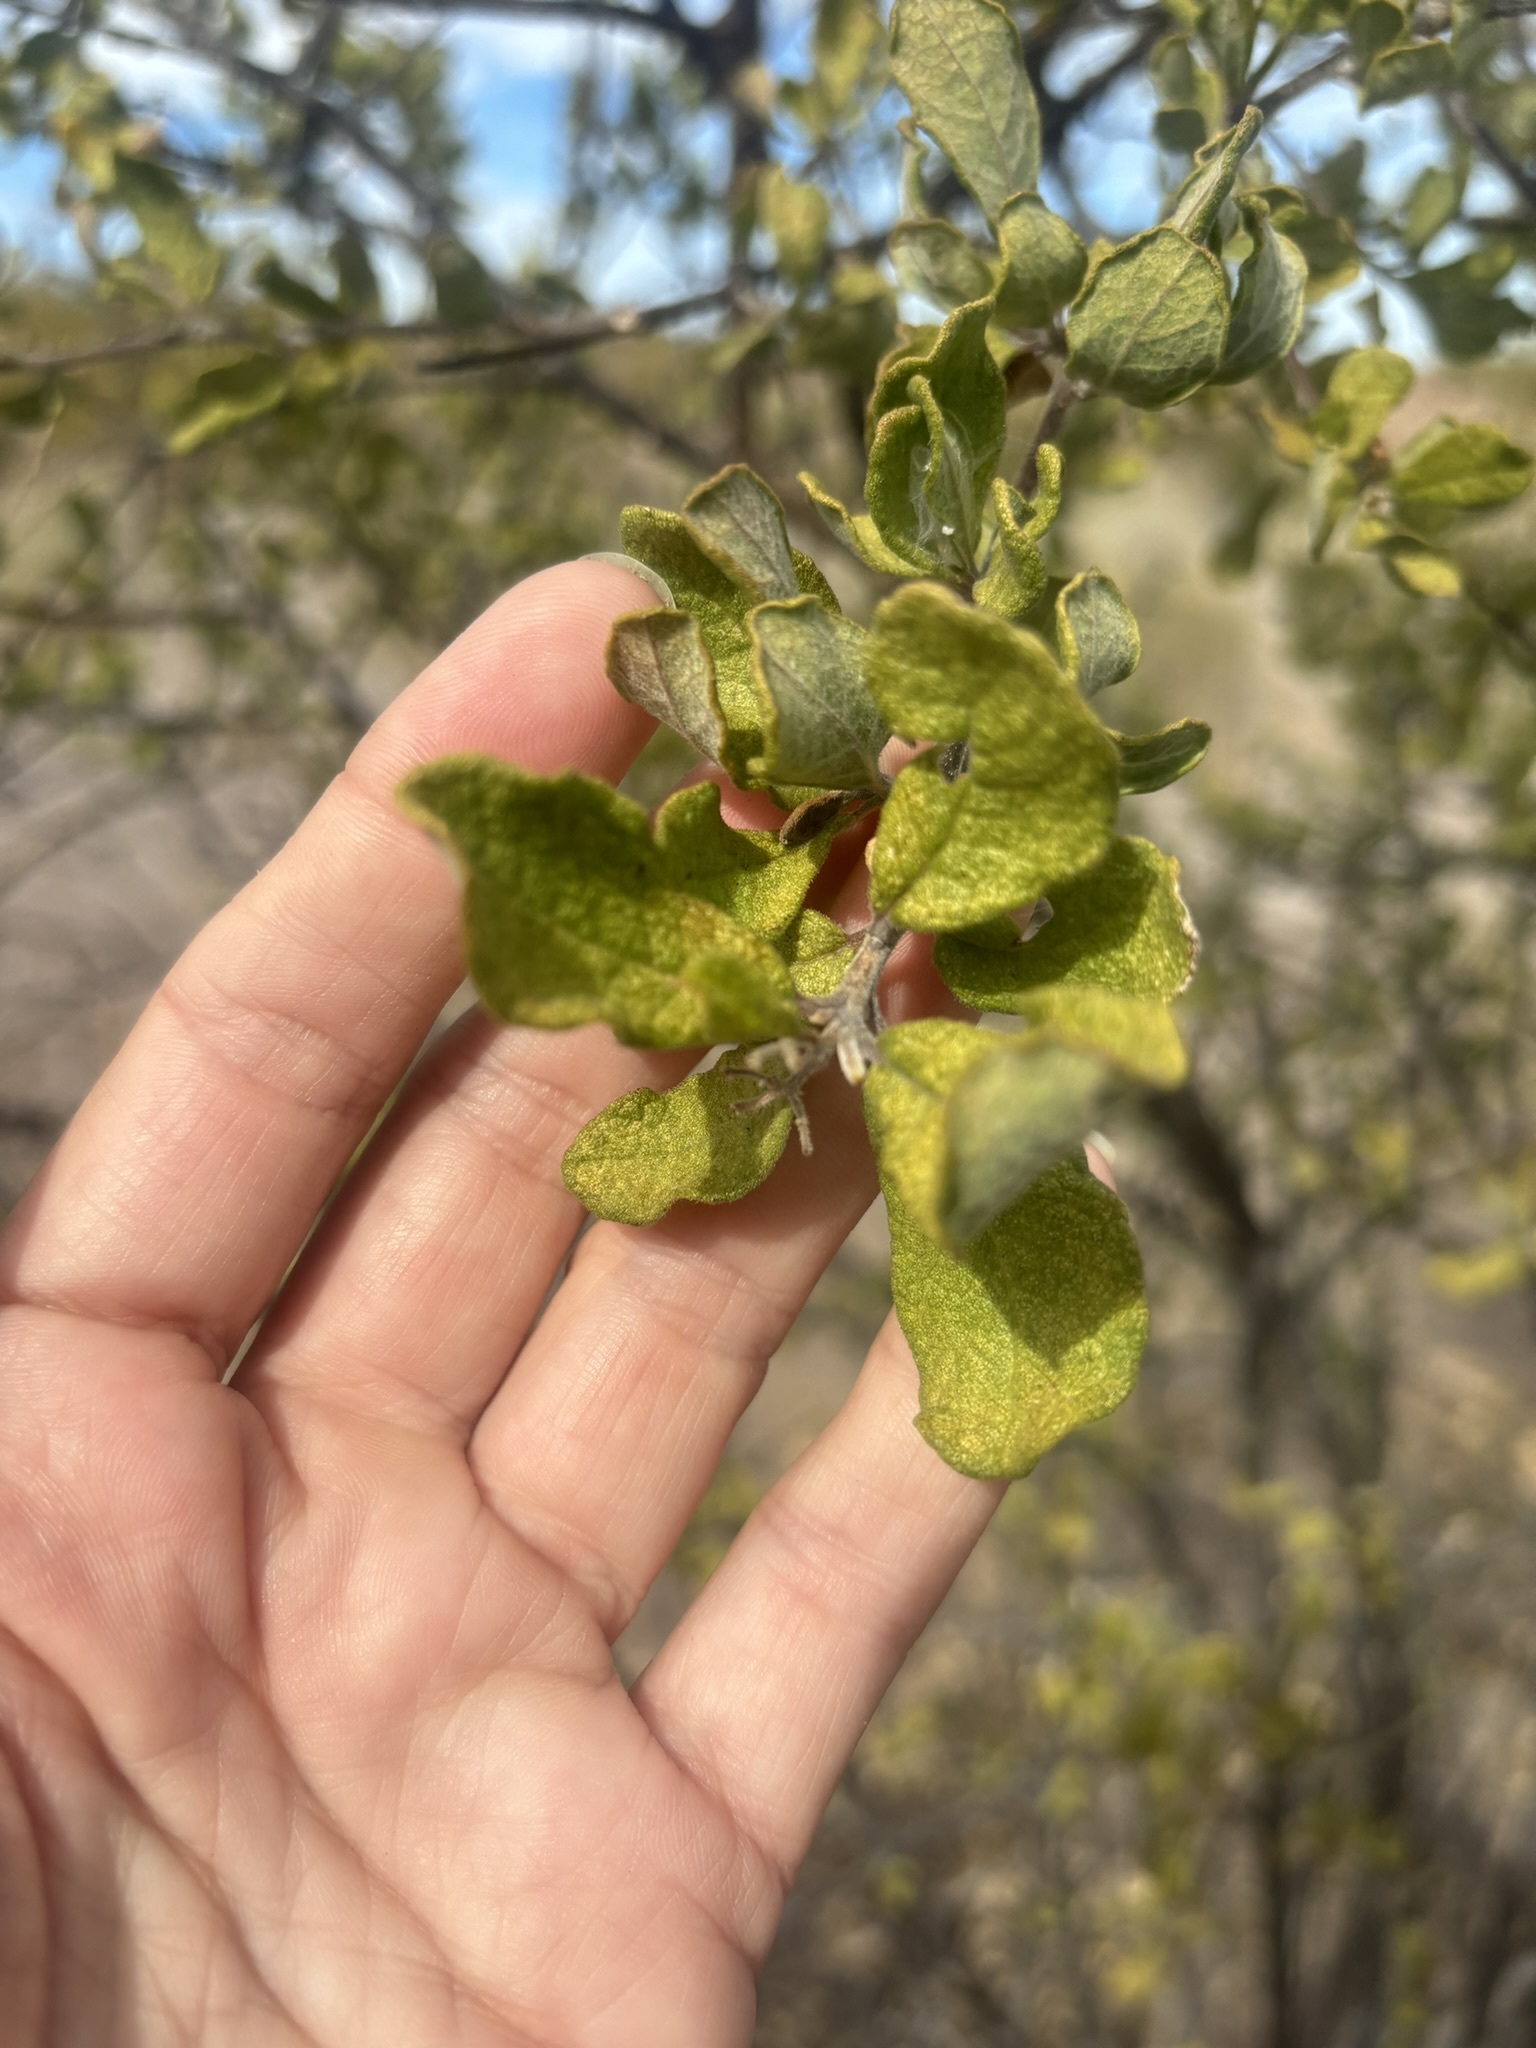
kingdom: Plantae
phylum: Tracheophyta
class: Magnoliopsida
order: Boraginales
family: Ehretiaceae
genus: Bourreria
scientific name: Bourreria sonorae
